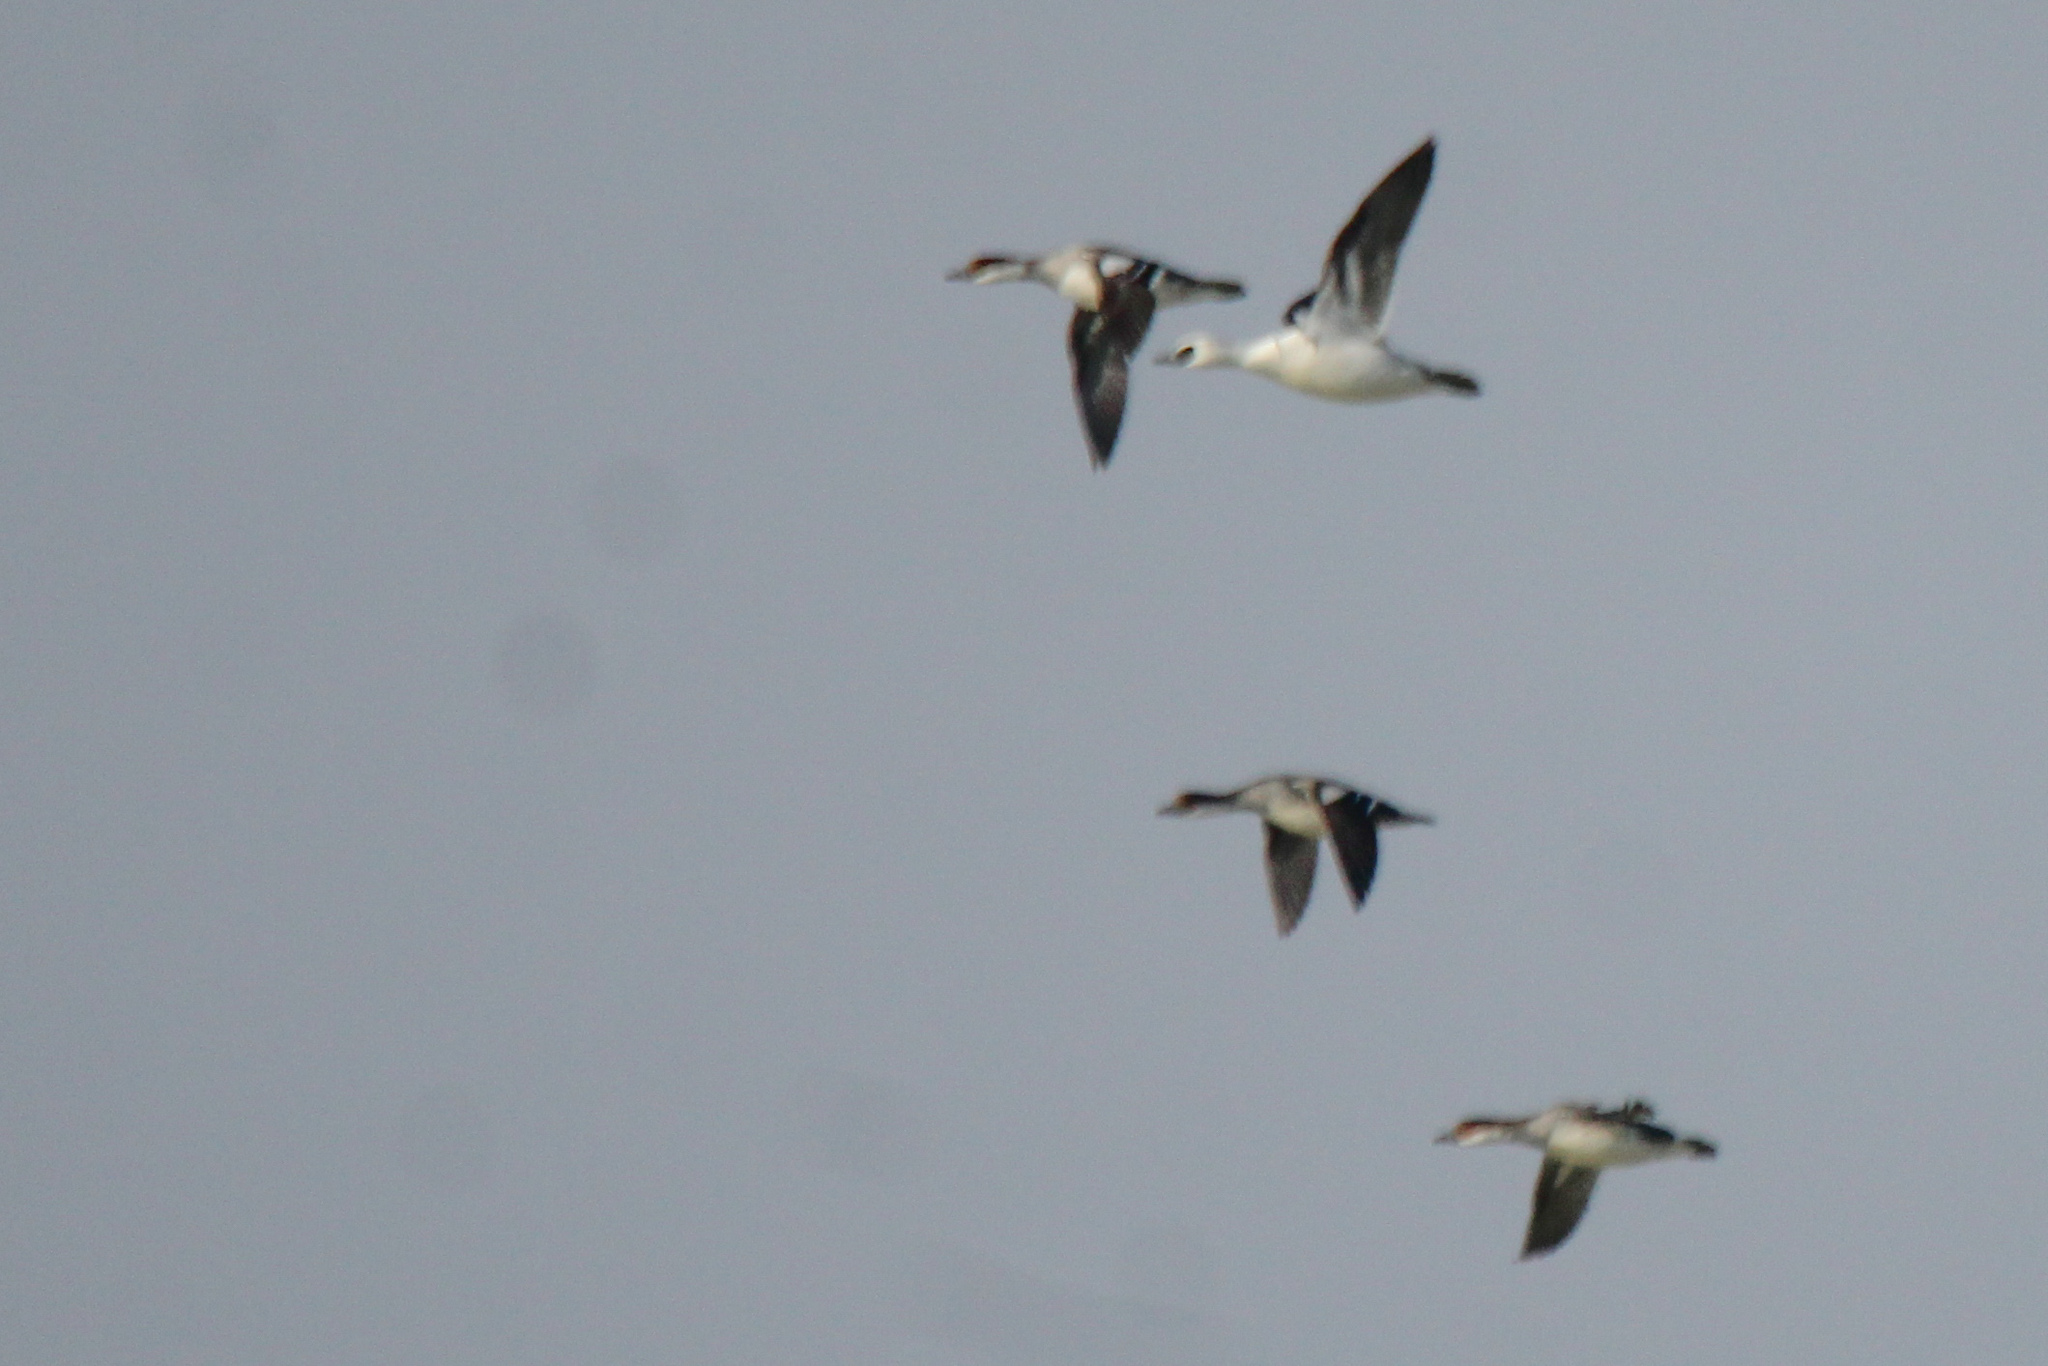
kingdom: Animalia
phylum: Chordata
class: Aves
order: Anseriformes
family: Anatidae
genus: Mergellus
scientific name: Mergellus albellus
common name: Smew
